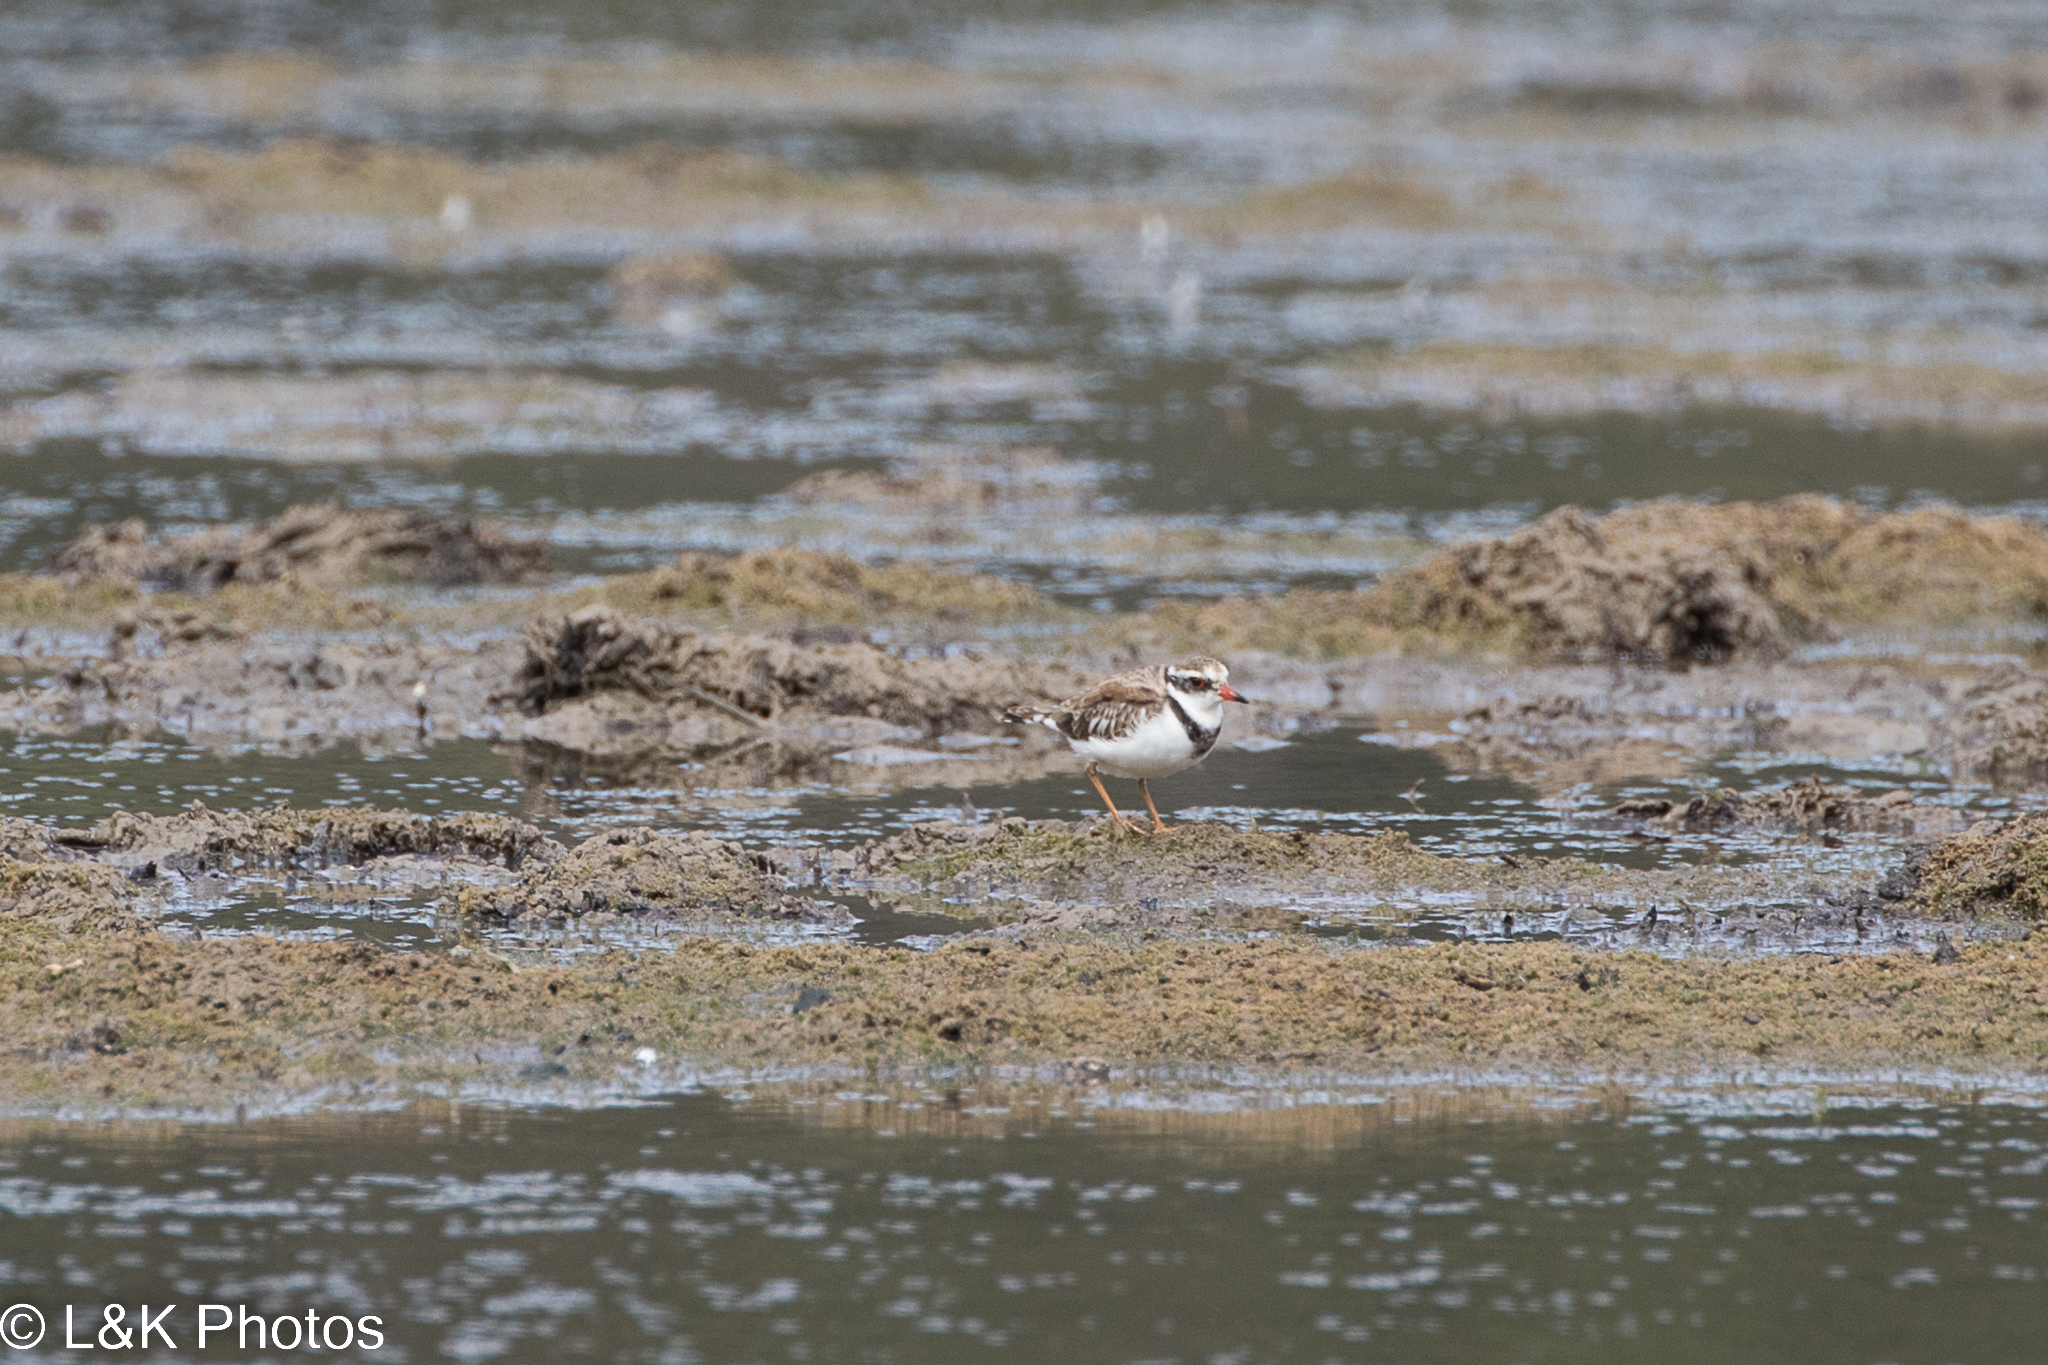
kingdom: Animalia
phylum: Chordata
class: Aves
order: Charadriiformes
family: Charadriidae
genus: Elseyornis
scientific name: Elseyornis melanops
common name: Black-fronted dotterel
